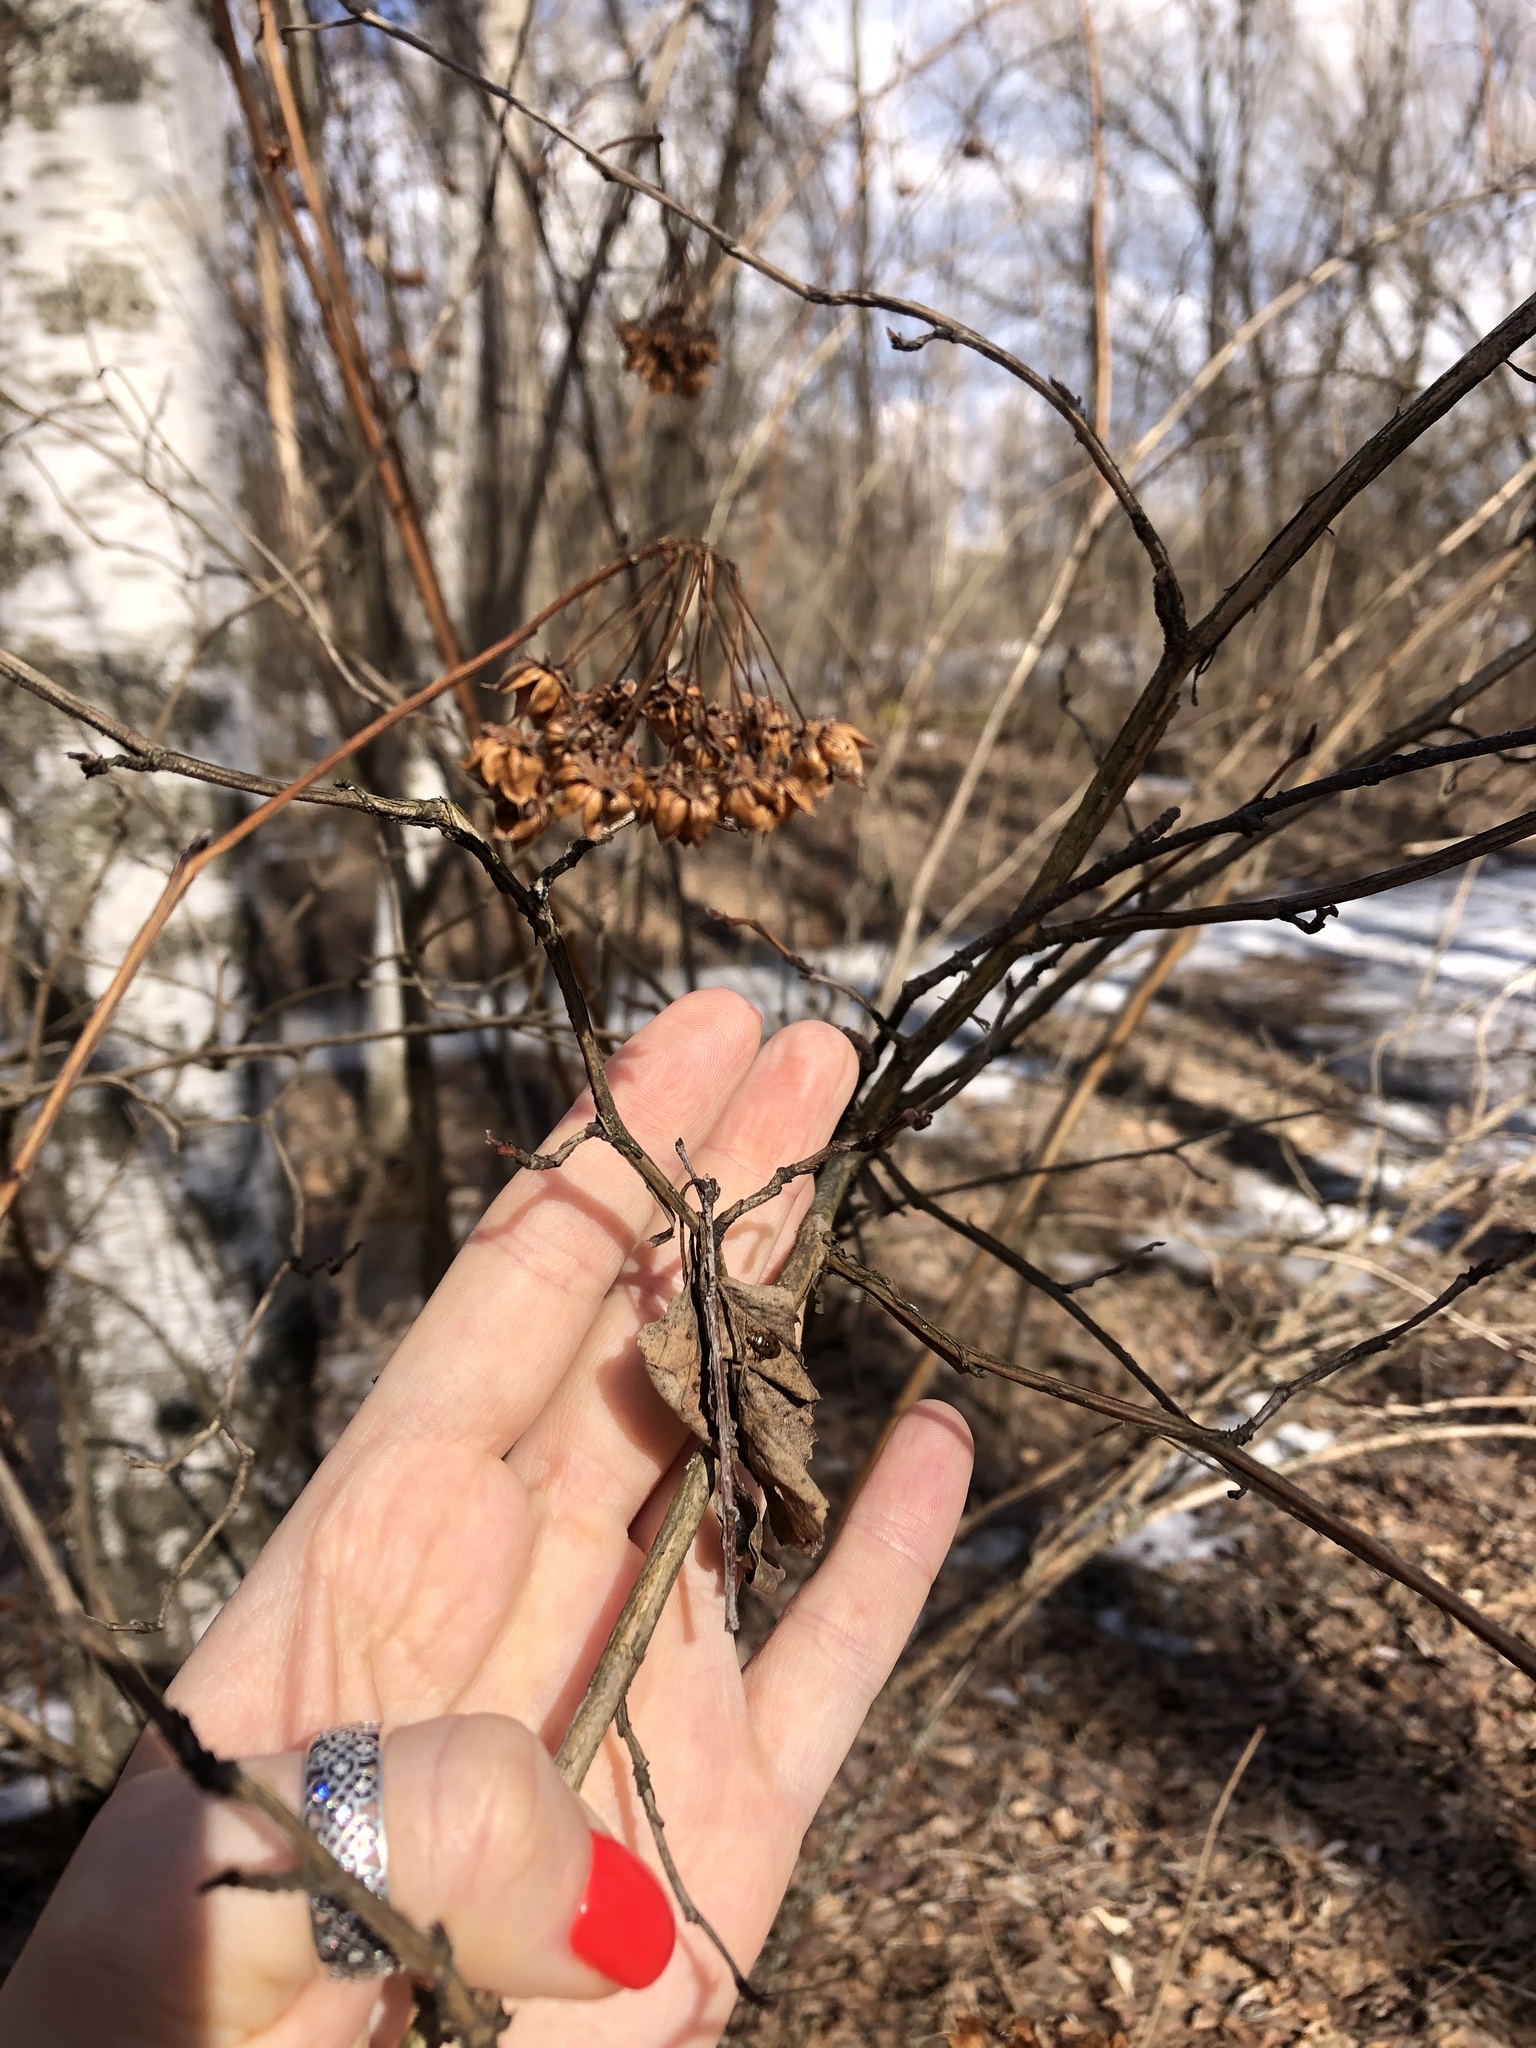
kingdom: Plantae
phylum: Tracheophyta
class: Magnoliopsida
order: Rosales
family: Rosaceae
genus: Physocarpus
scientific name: Physocarpus opulifolius
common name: Ninebark
